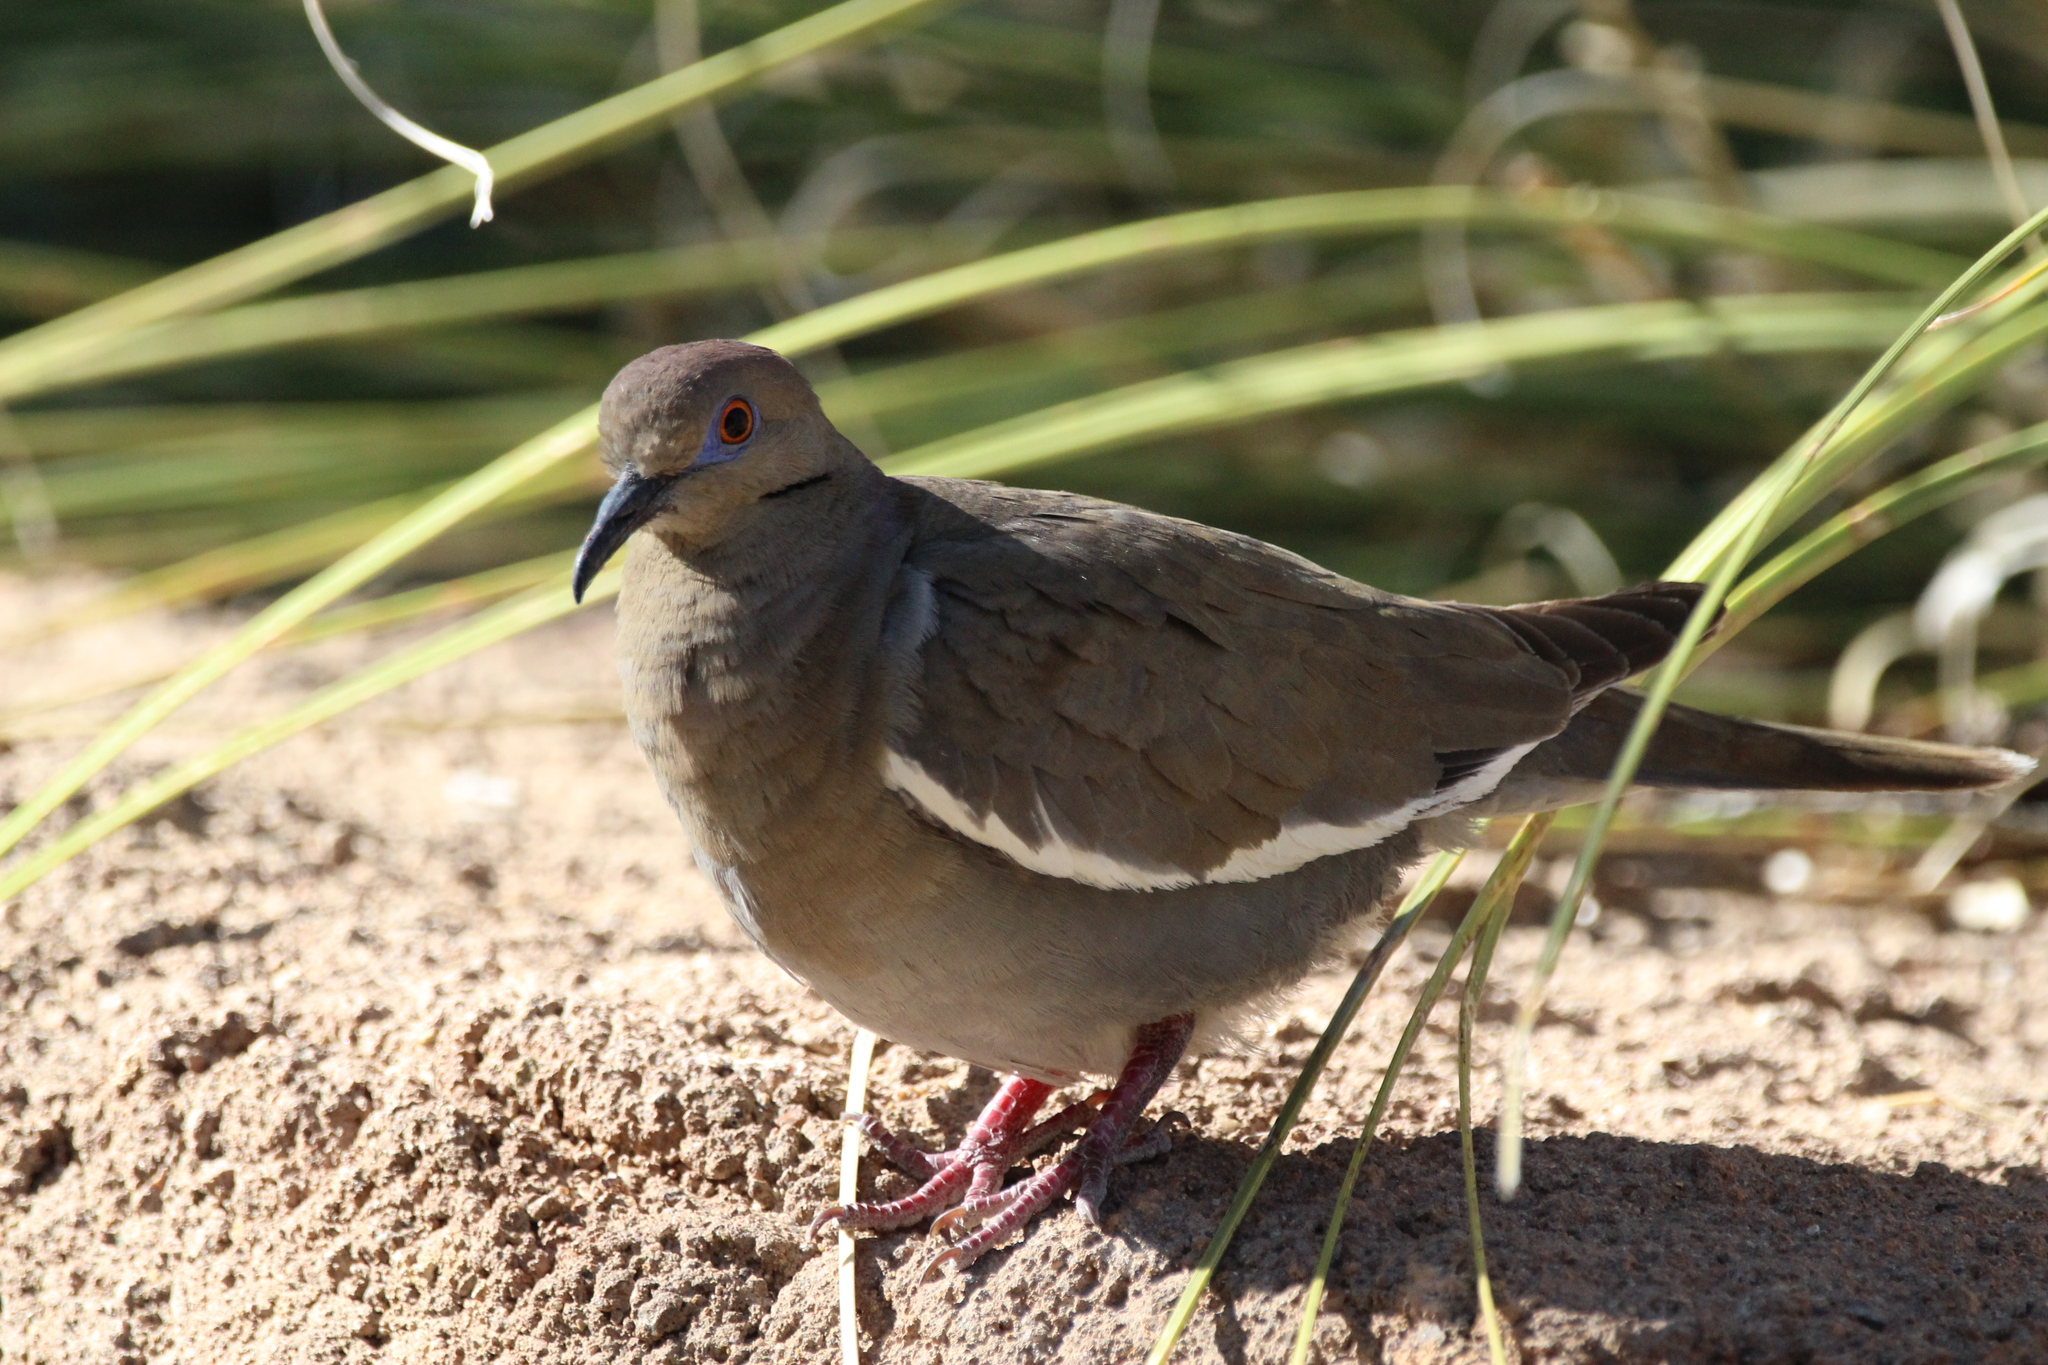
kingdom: Animalia
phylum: Chordata
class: Aves
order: Columbiformes
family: Columbidae
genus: Zenaida
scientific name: Zenaida asiatica
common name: White-winged dove
